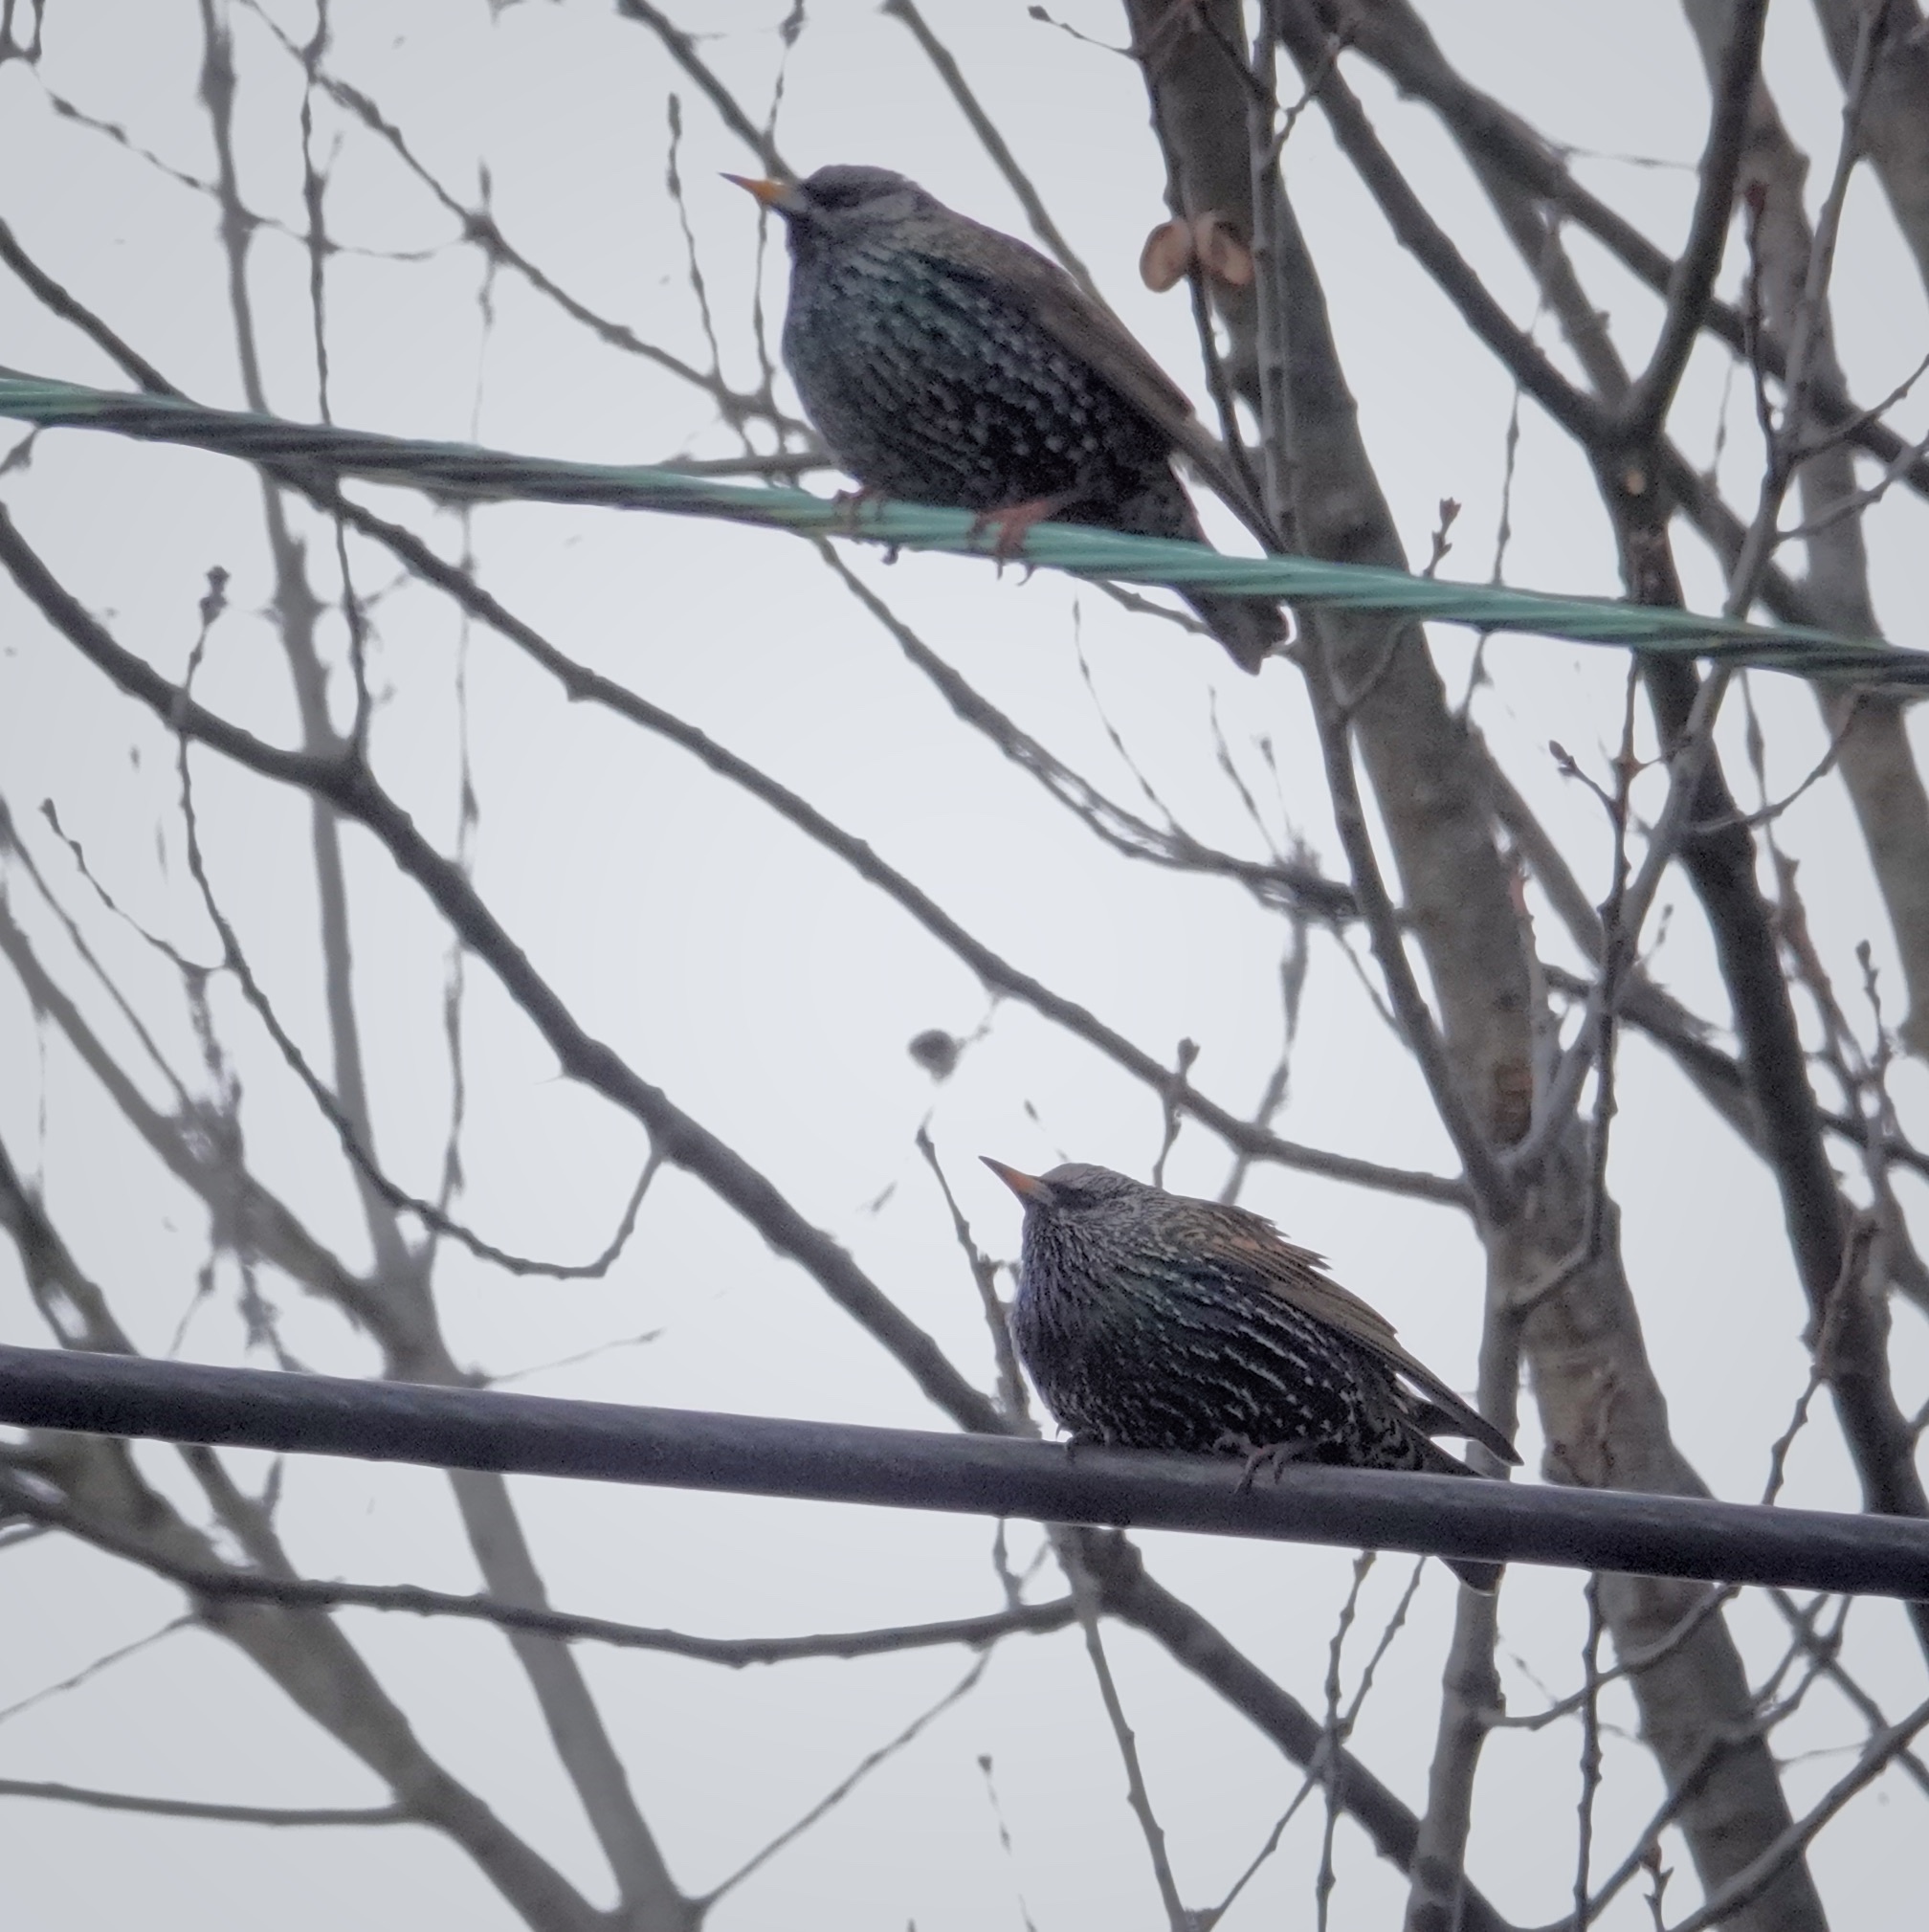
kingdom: Animalia
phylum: Chordata
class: Aves
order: Passeriformes
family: Sturnidae
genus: Sturnus
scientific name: Sturnus vulgaris
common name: Common starling
